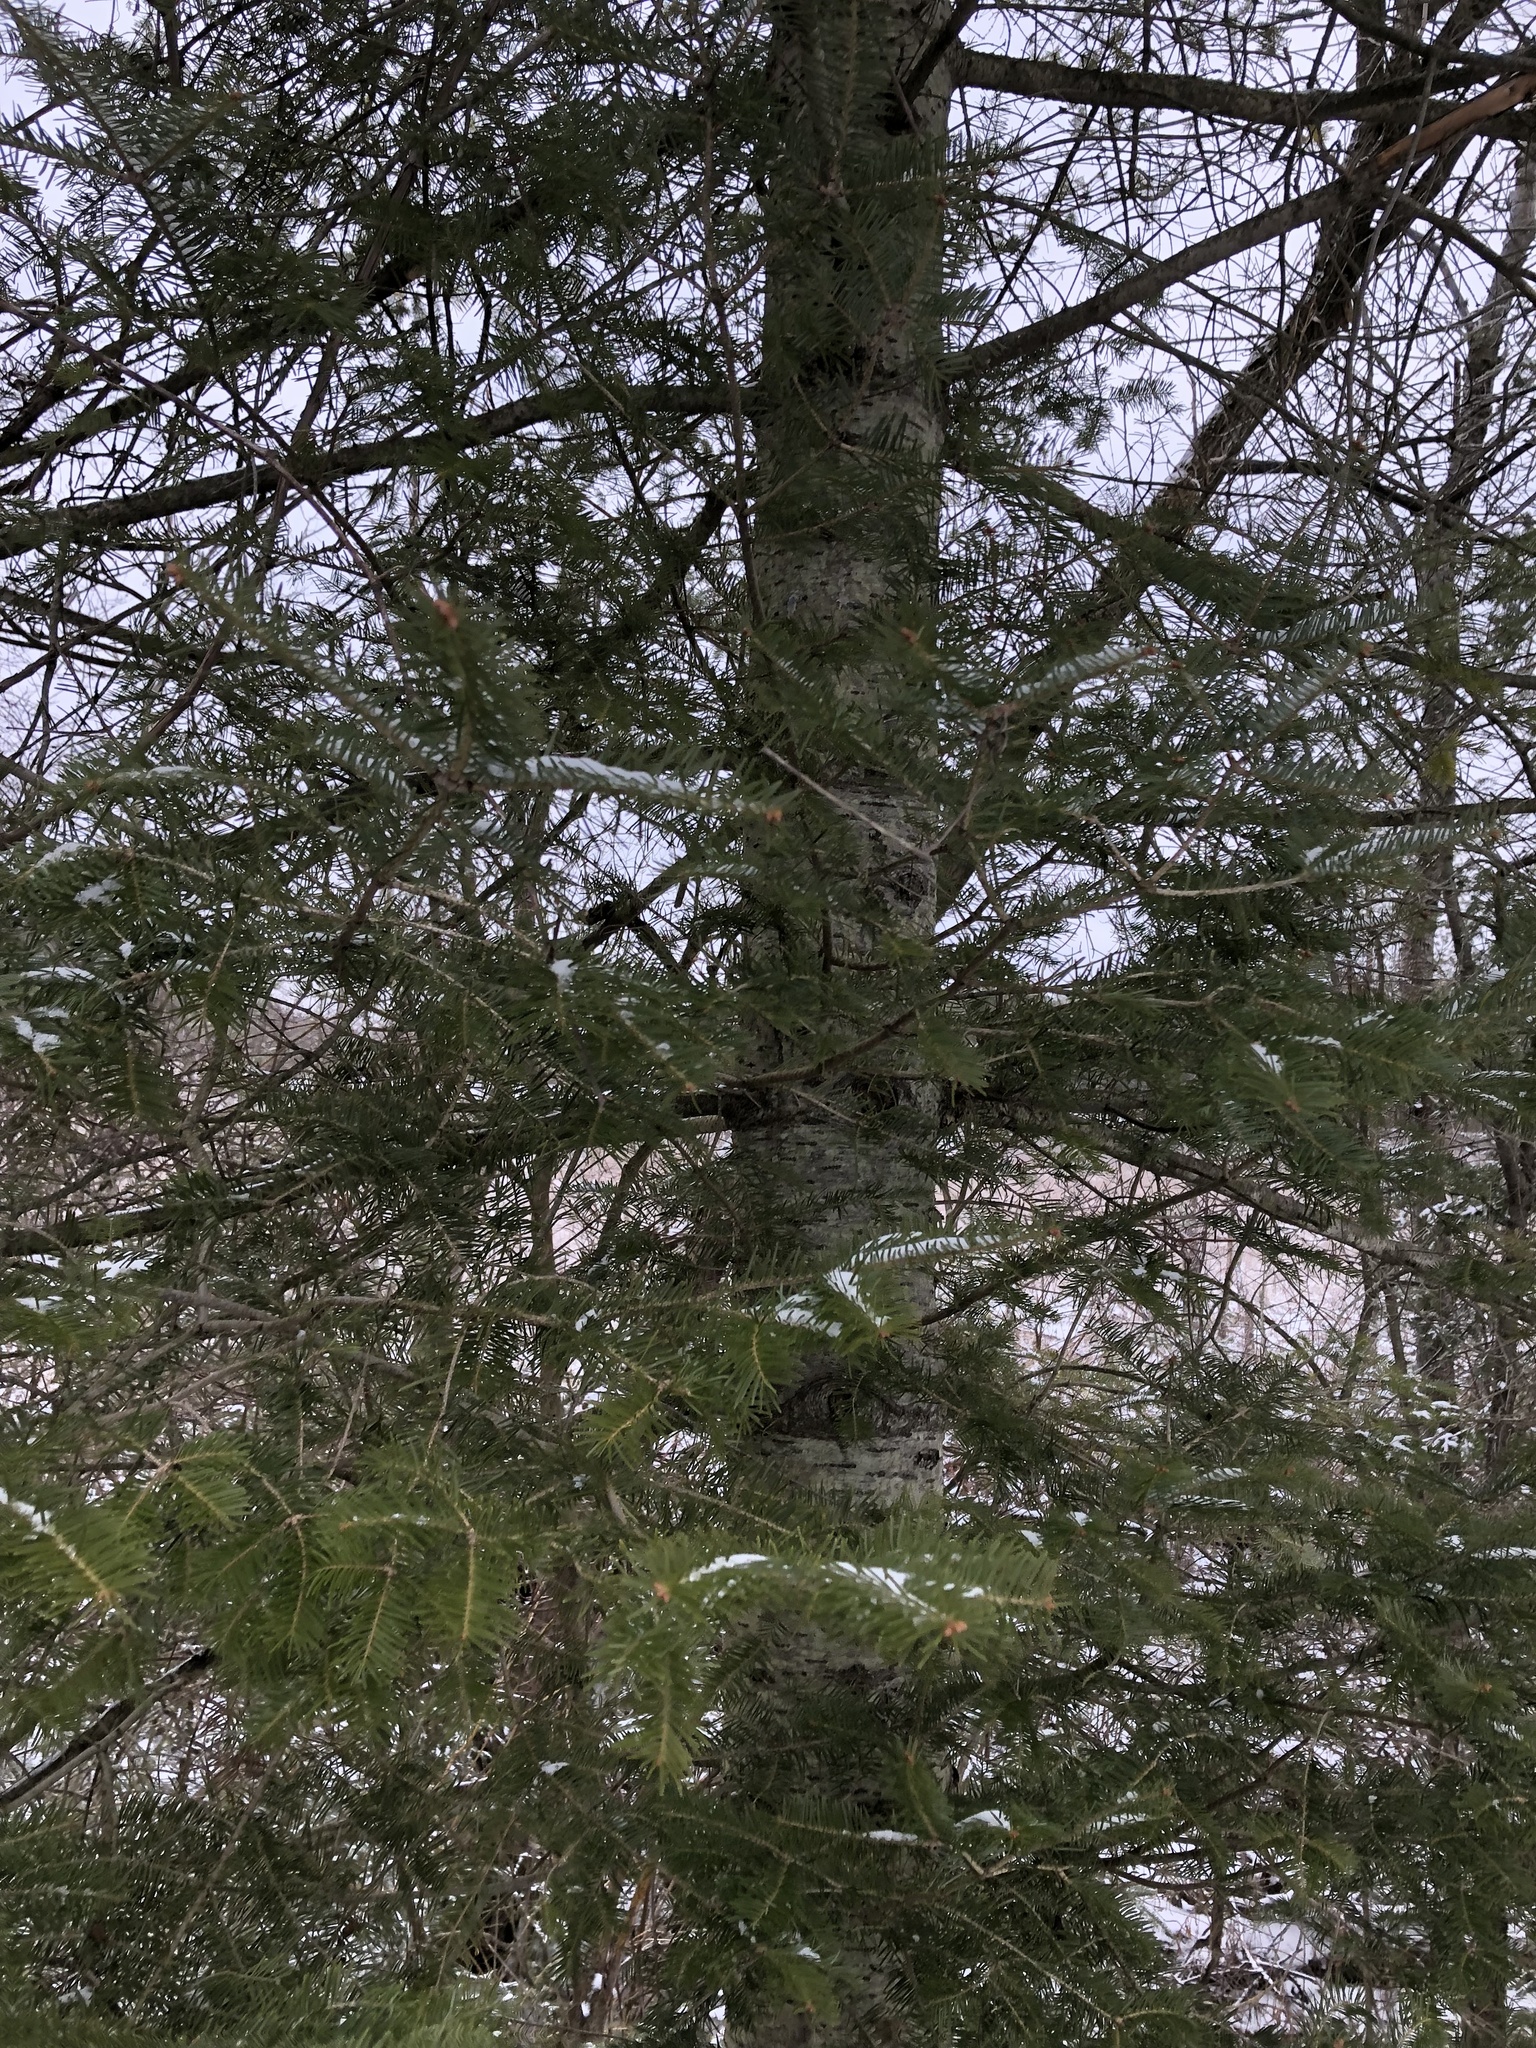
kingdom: Plantae
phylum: Tracheophyta
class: Pinopsida
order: Pinales
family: Pinaceae
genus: Abies
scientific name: Abies balsamea
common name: Balsam fir
